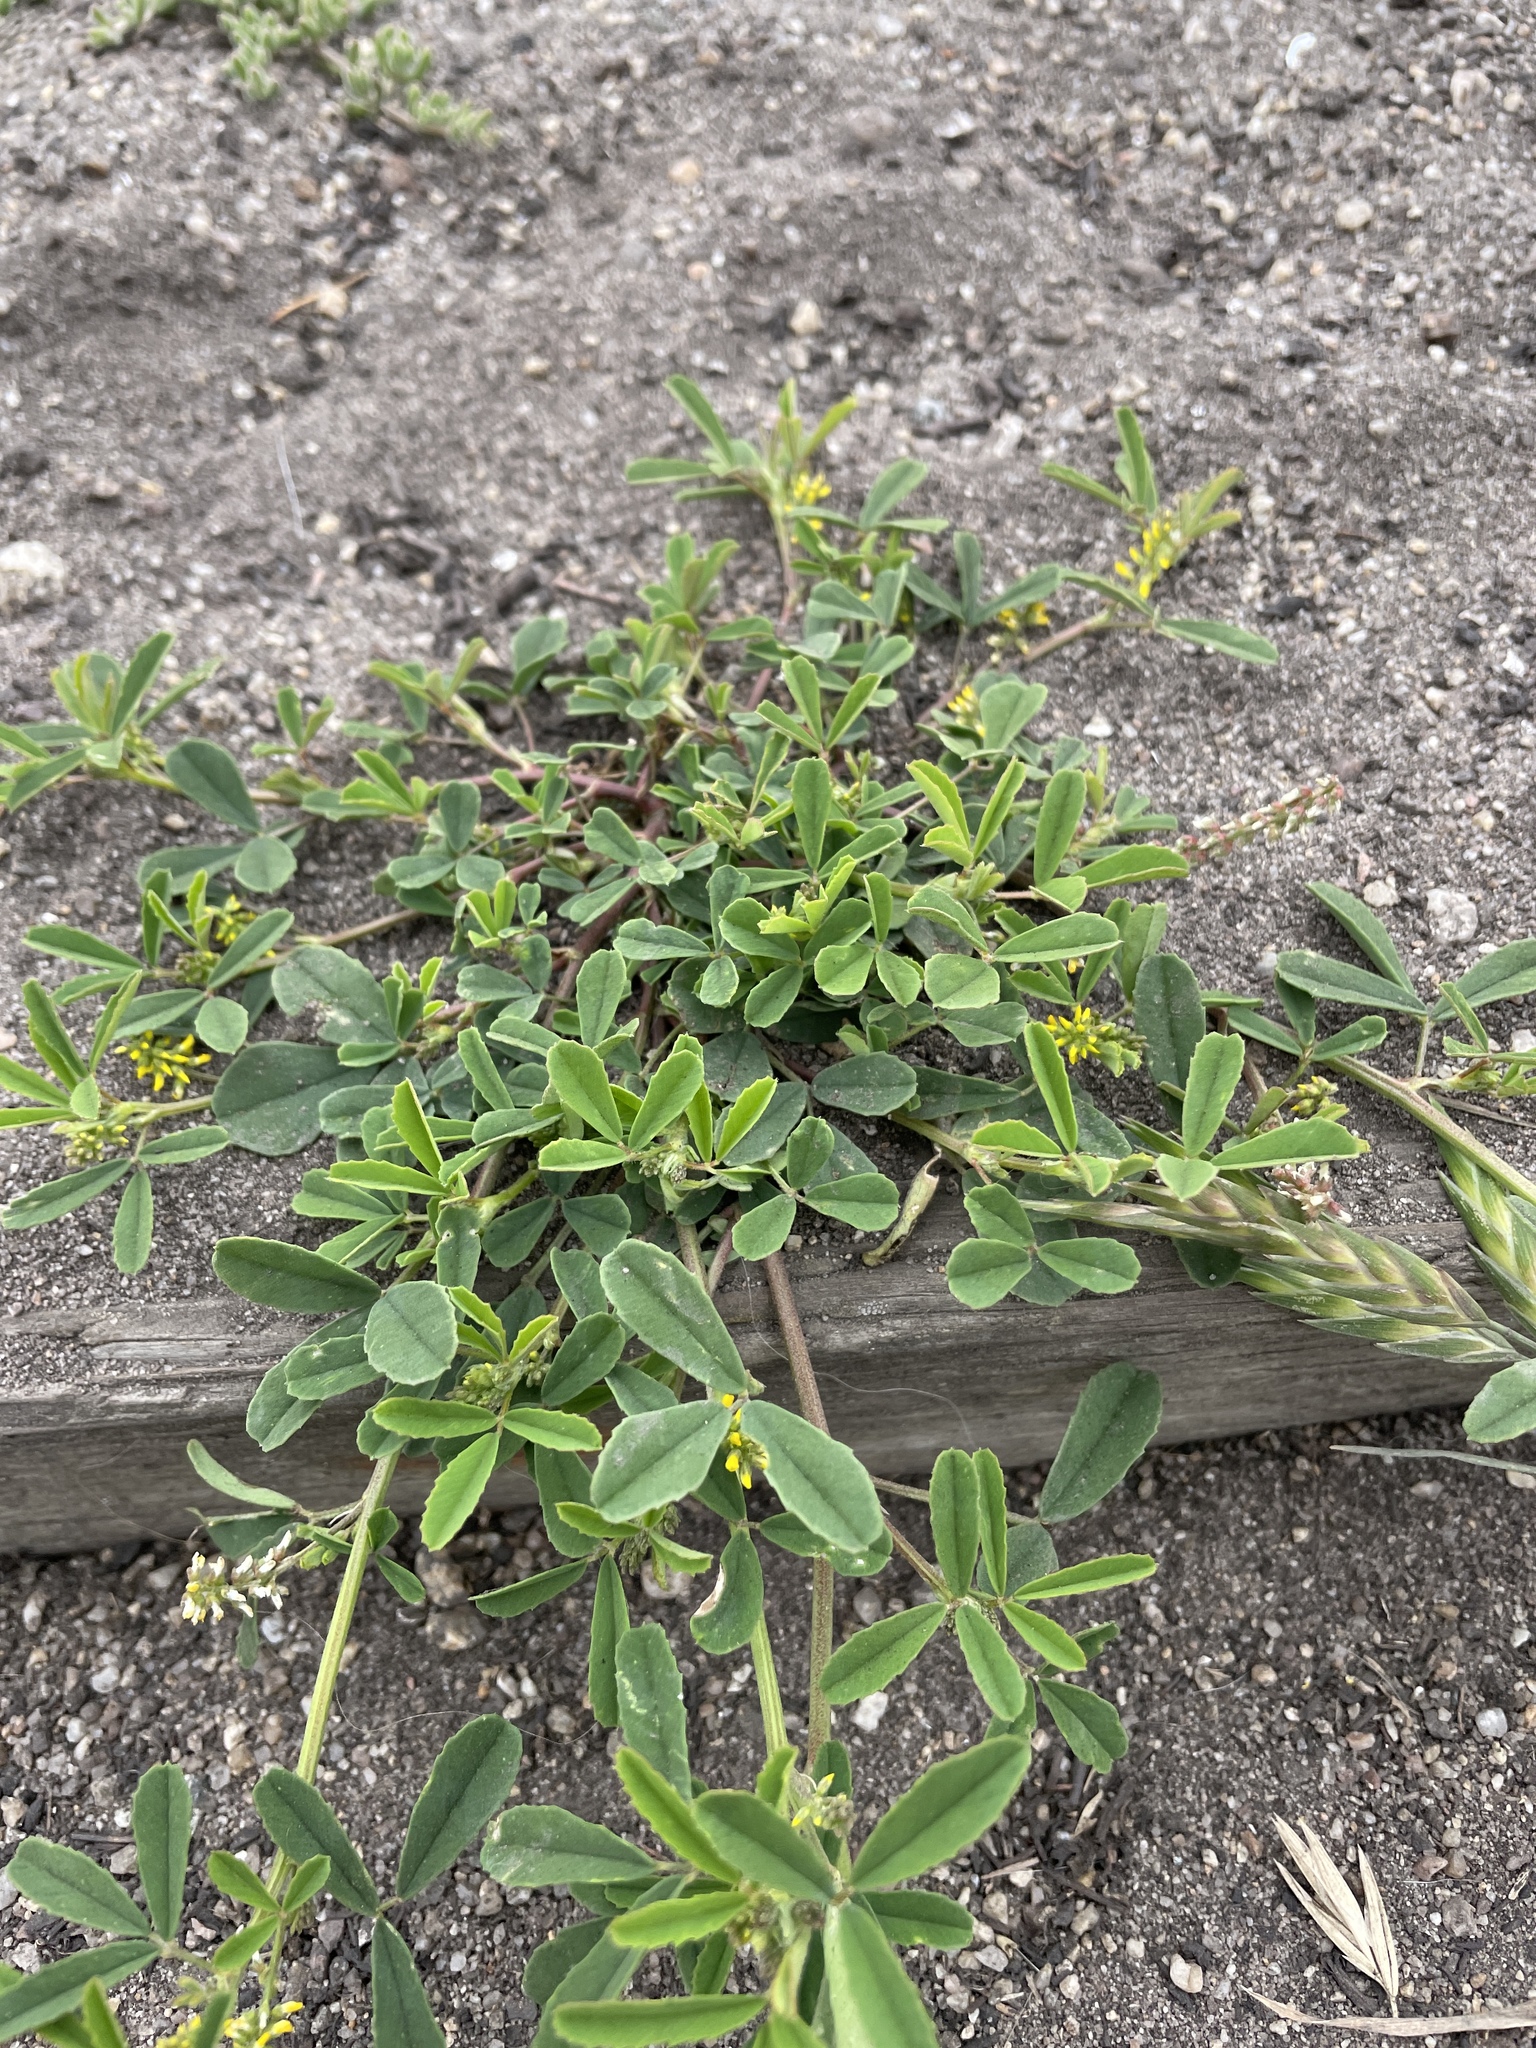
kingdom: Plantae
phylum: Tracheophyta
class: Magnoliopsida
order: Fabales
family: Fabaceae
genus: Melilotus
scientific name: Melilotus indicus
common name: Small melilot
